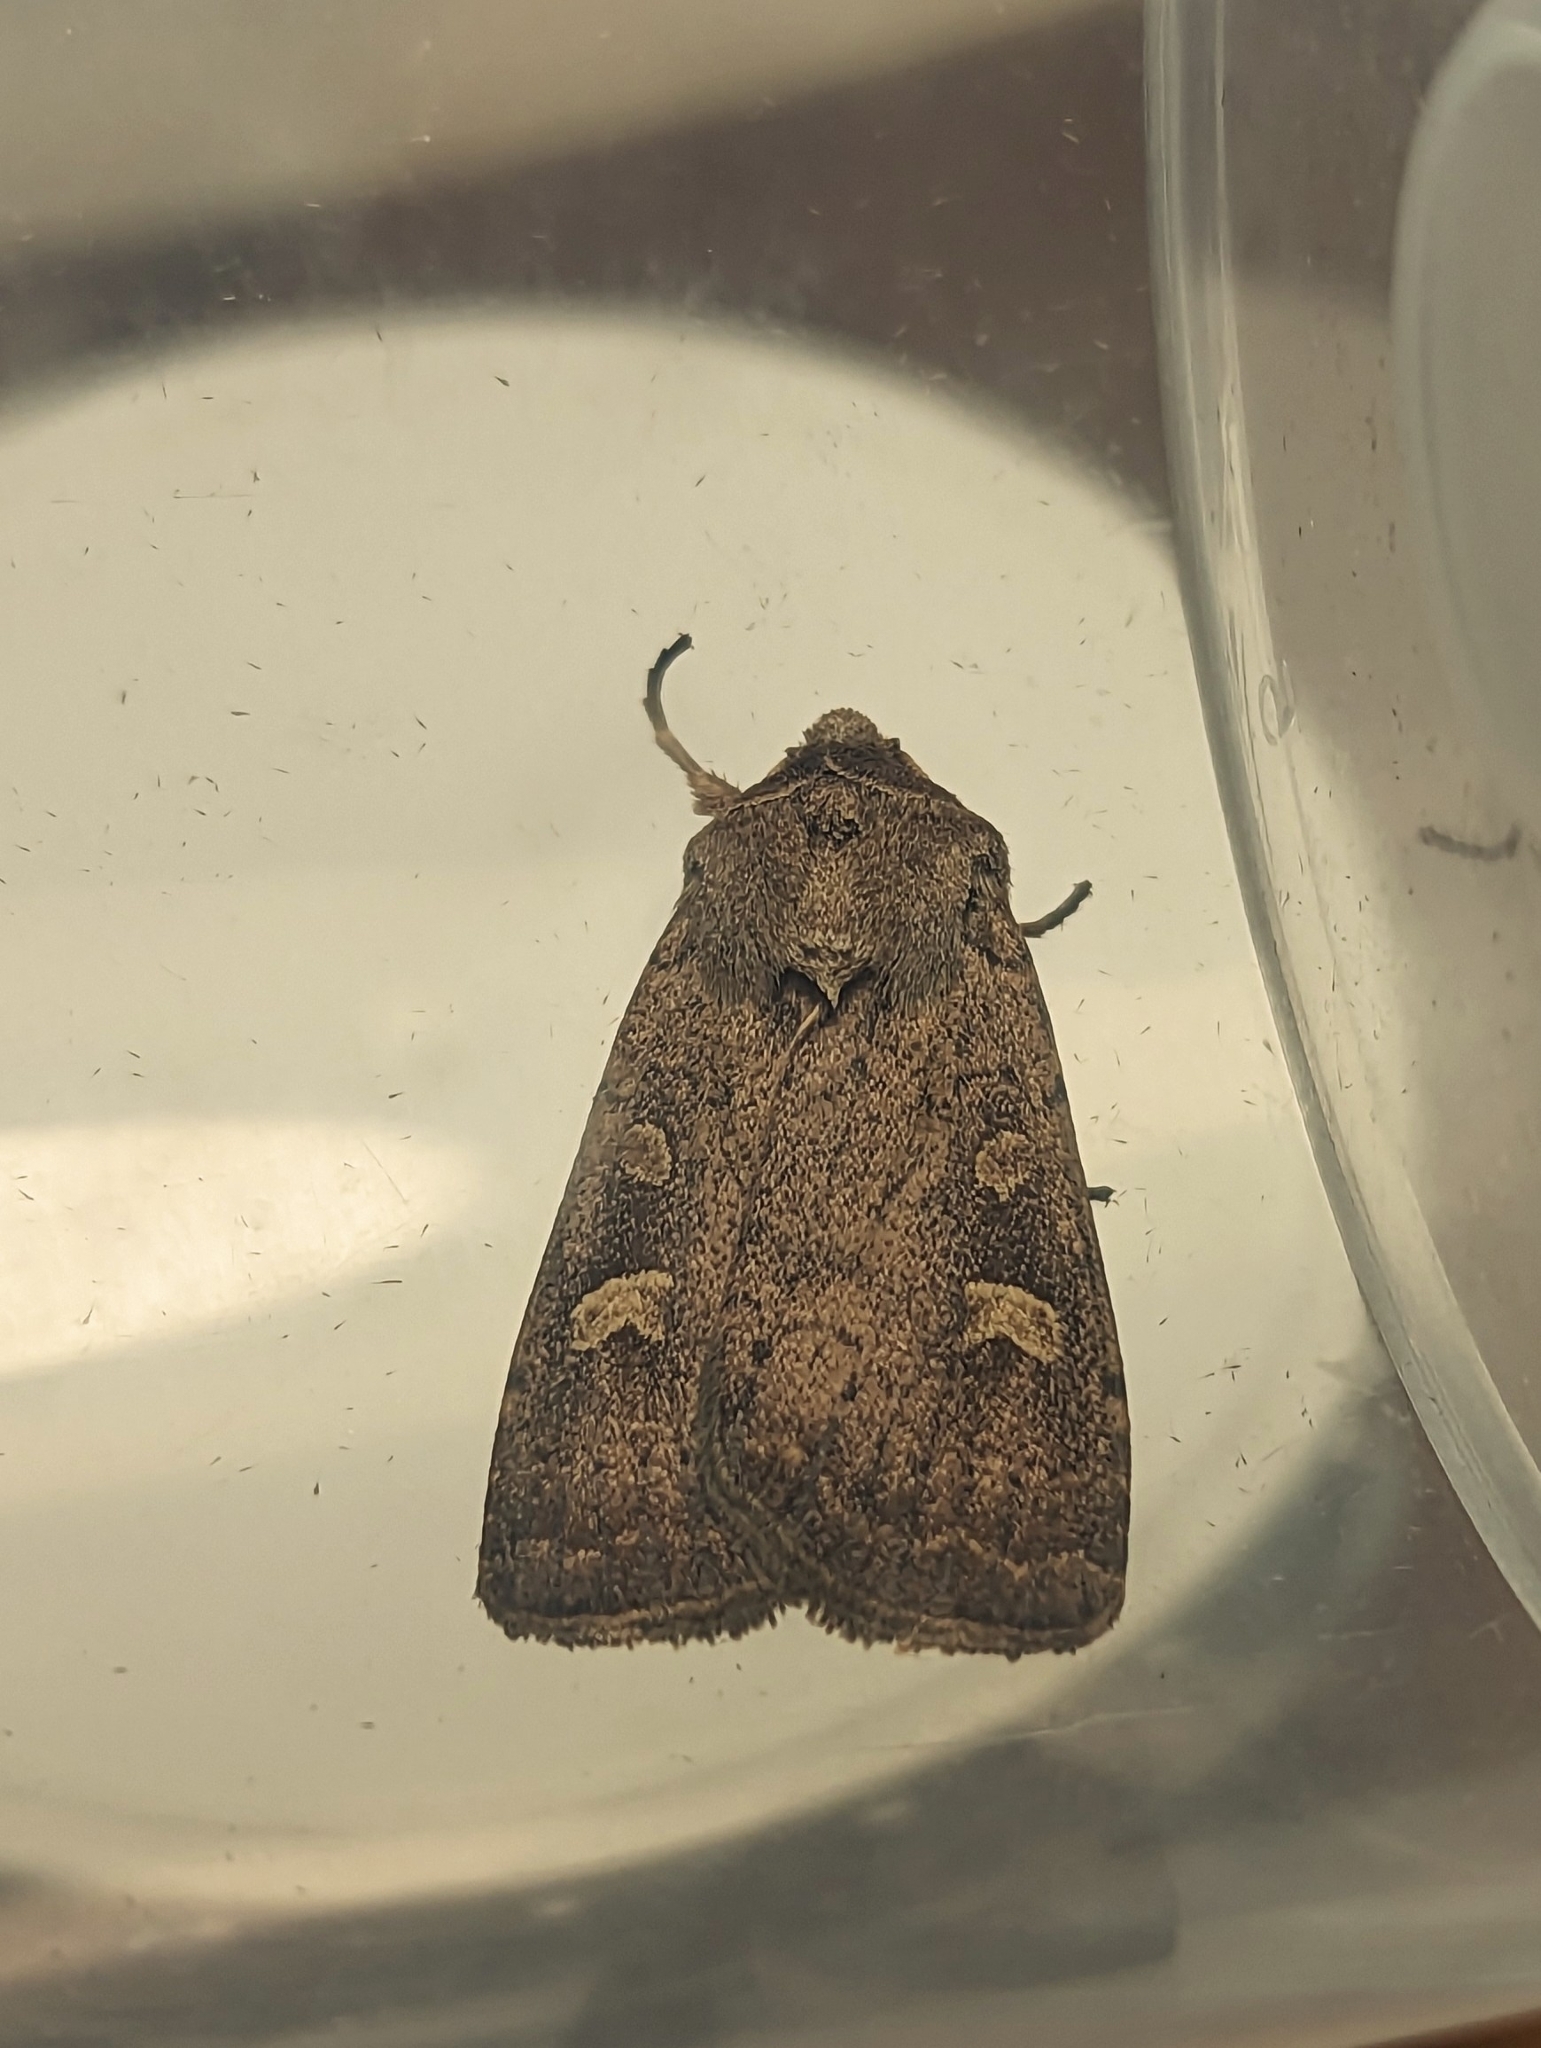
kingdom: Animalia
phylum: Arthropoda
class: Insecta
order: Lepidoptera
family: Noctuidae
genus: Xestia
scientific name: Xestia xanthographa
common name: Square-spot rustic
